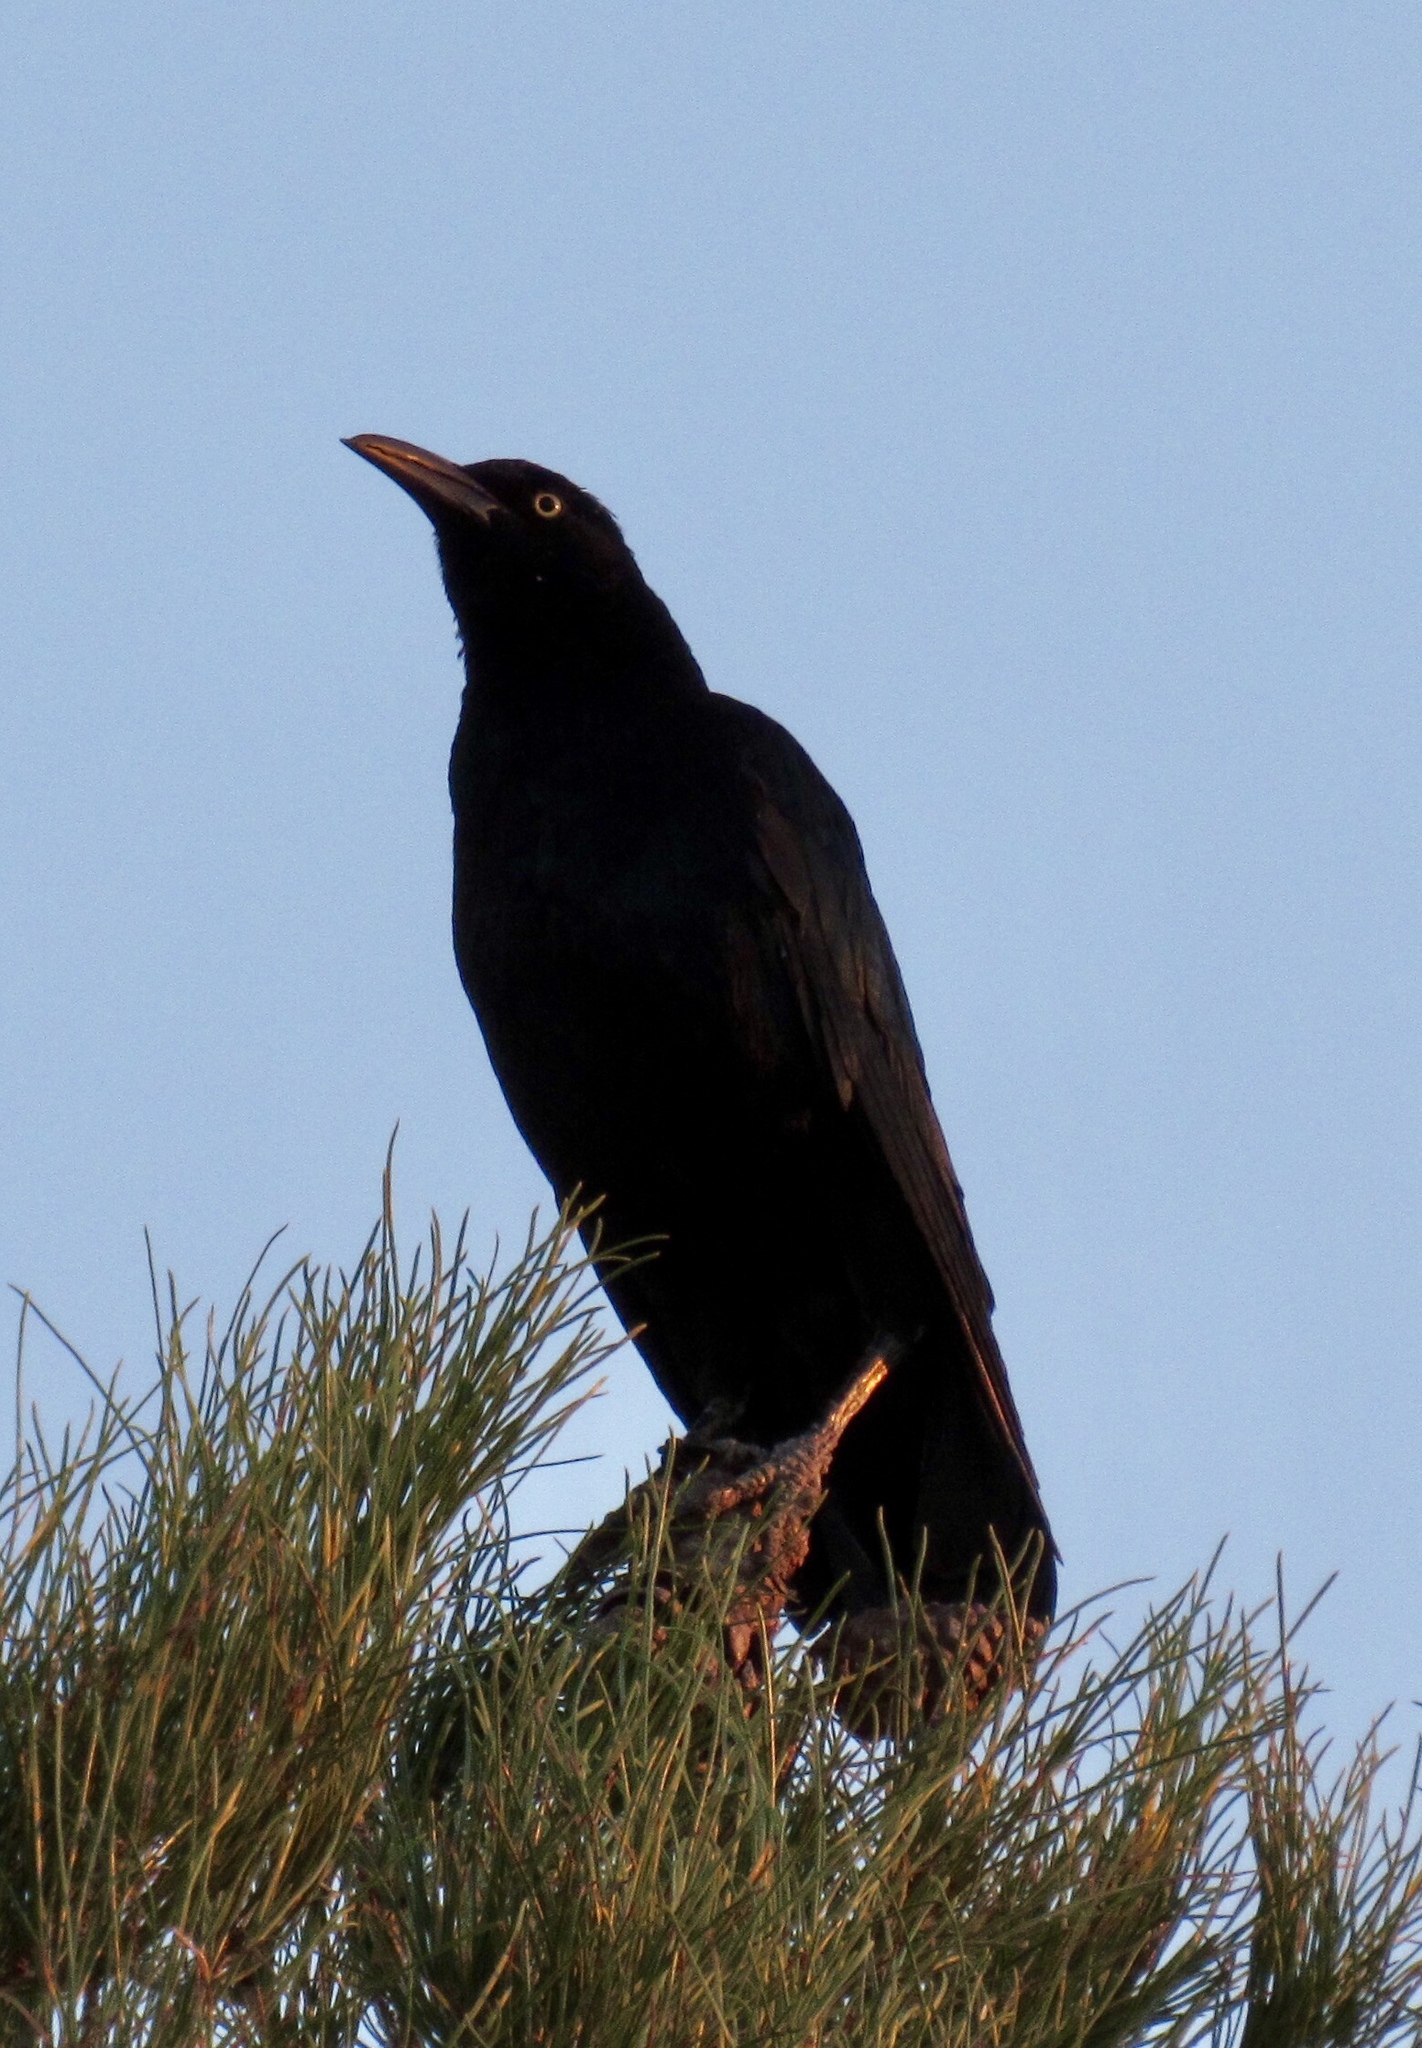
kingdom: Animalia
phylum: Chordata
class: Aves
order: Passeriformes
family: Icteridae
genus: Quiscalus
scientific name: Quiscalus mexicanus
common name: Great-tailed grackle
